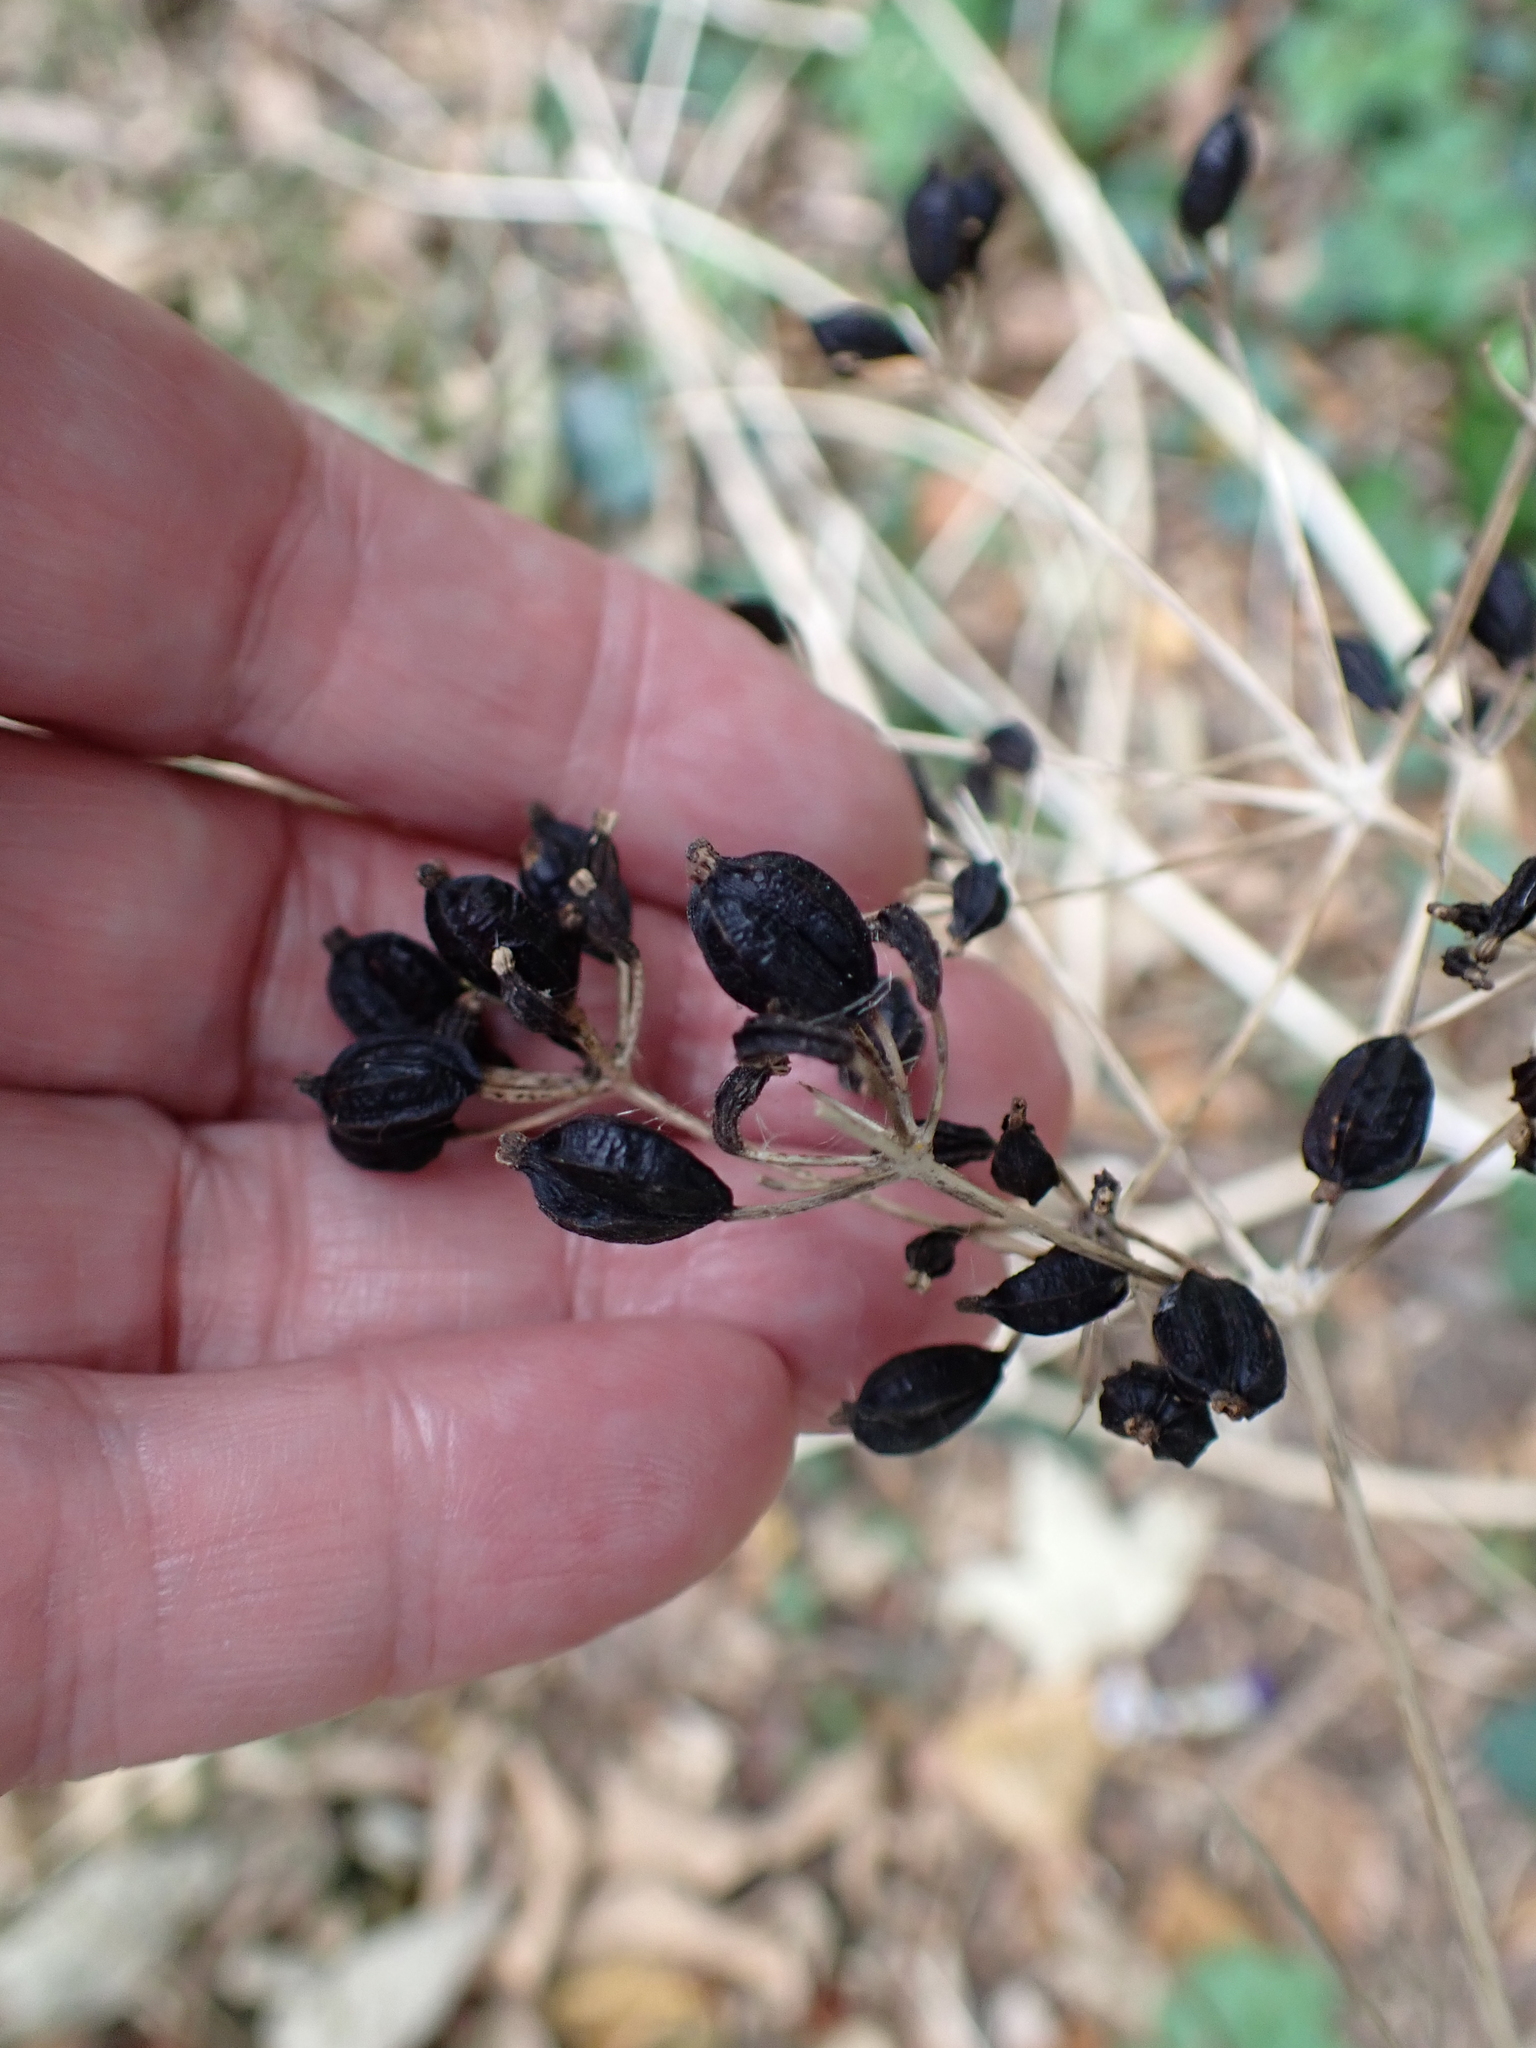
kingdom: Plantae
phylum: Tracheophyta
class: Magnoliopsida
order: Apiales
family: Apiaceae
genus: Smyrnium
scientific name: Smyrnium olusatrum
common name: Alexanders
